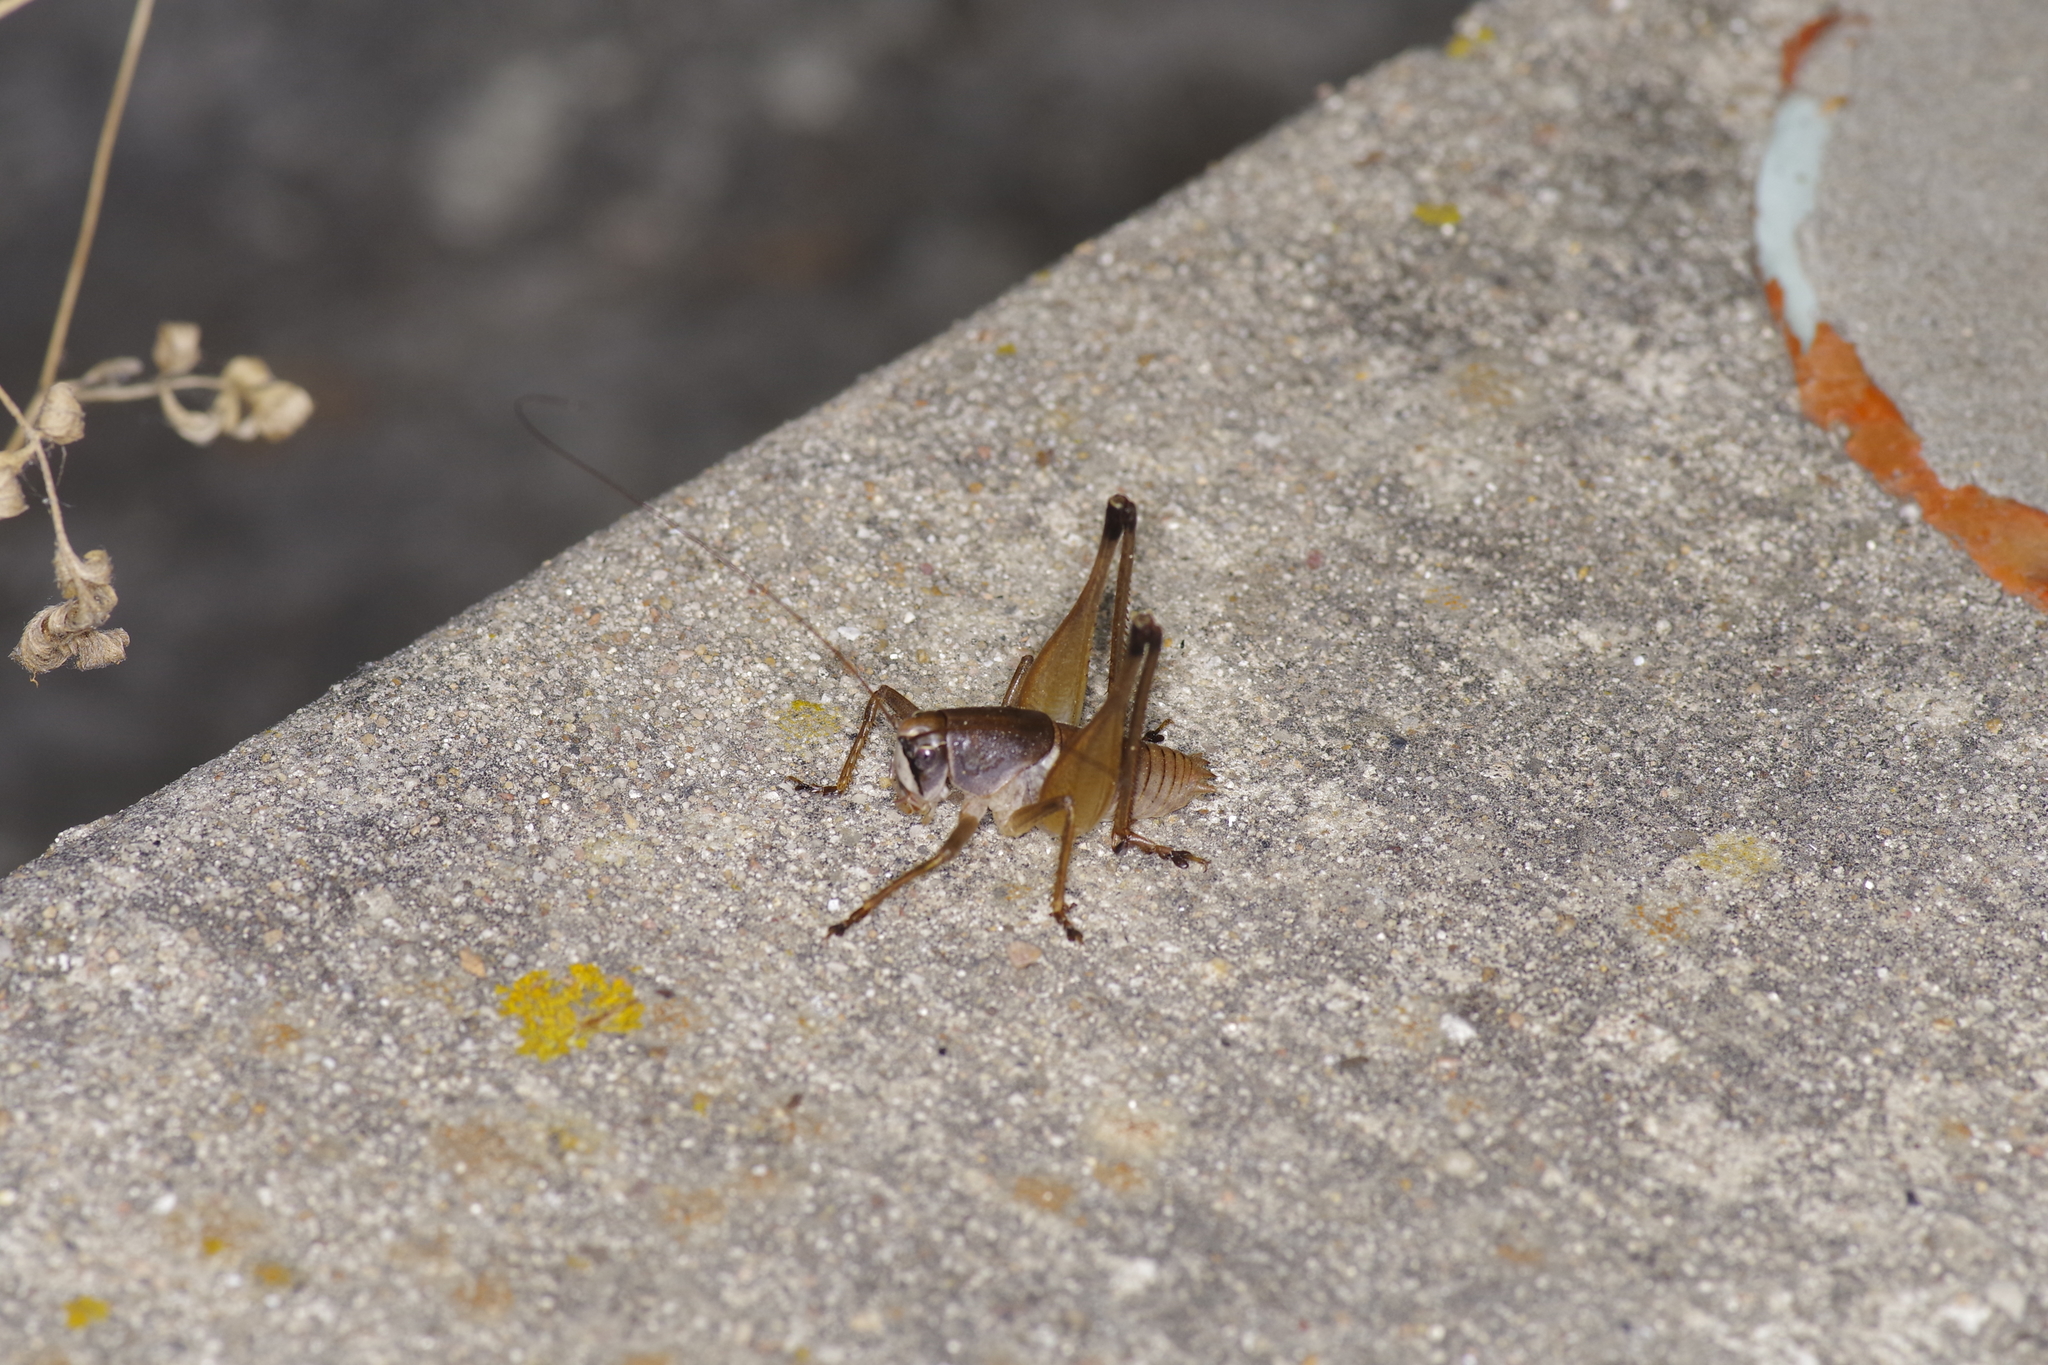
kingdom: Animalia
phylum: Arthropoda
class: Insecta
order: Orthoptera
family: Tettigoniidae
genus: Pediodectes
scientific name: Pediodectes bruneri
